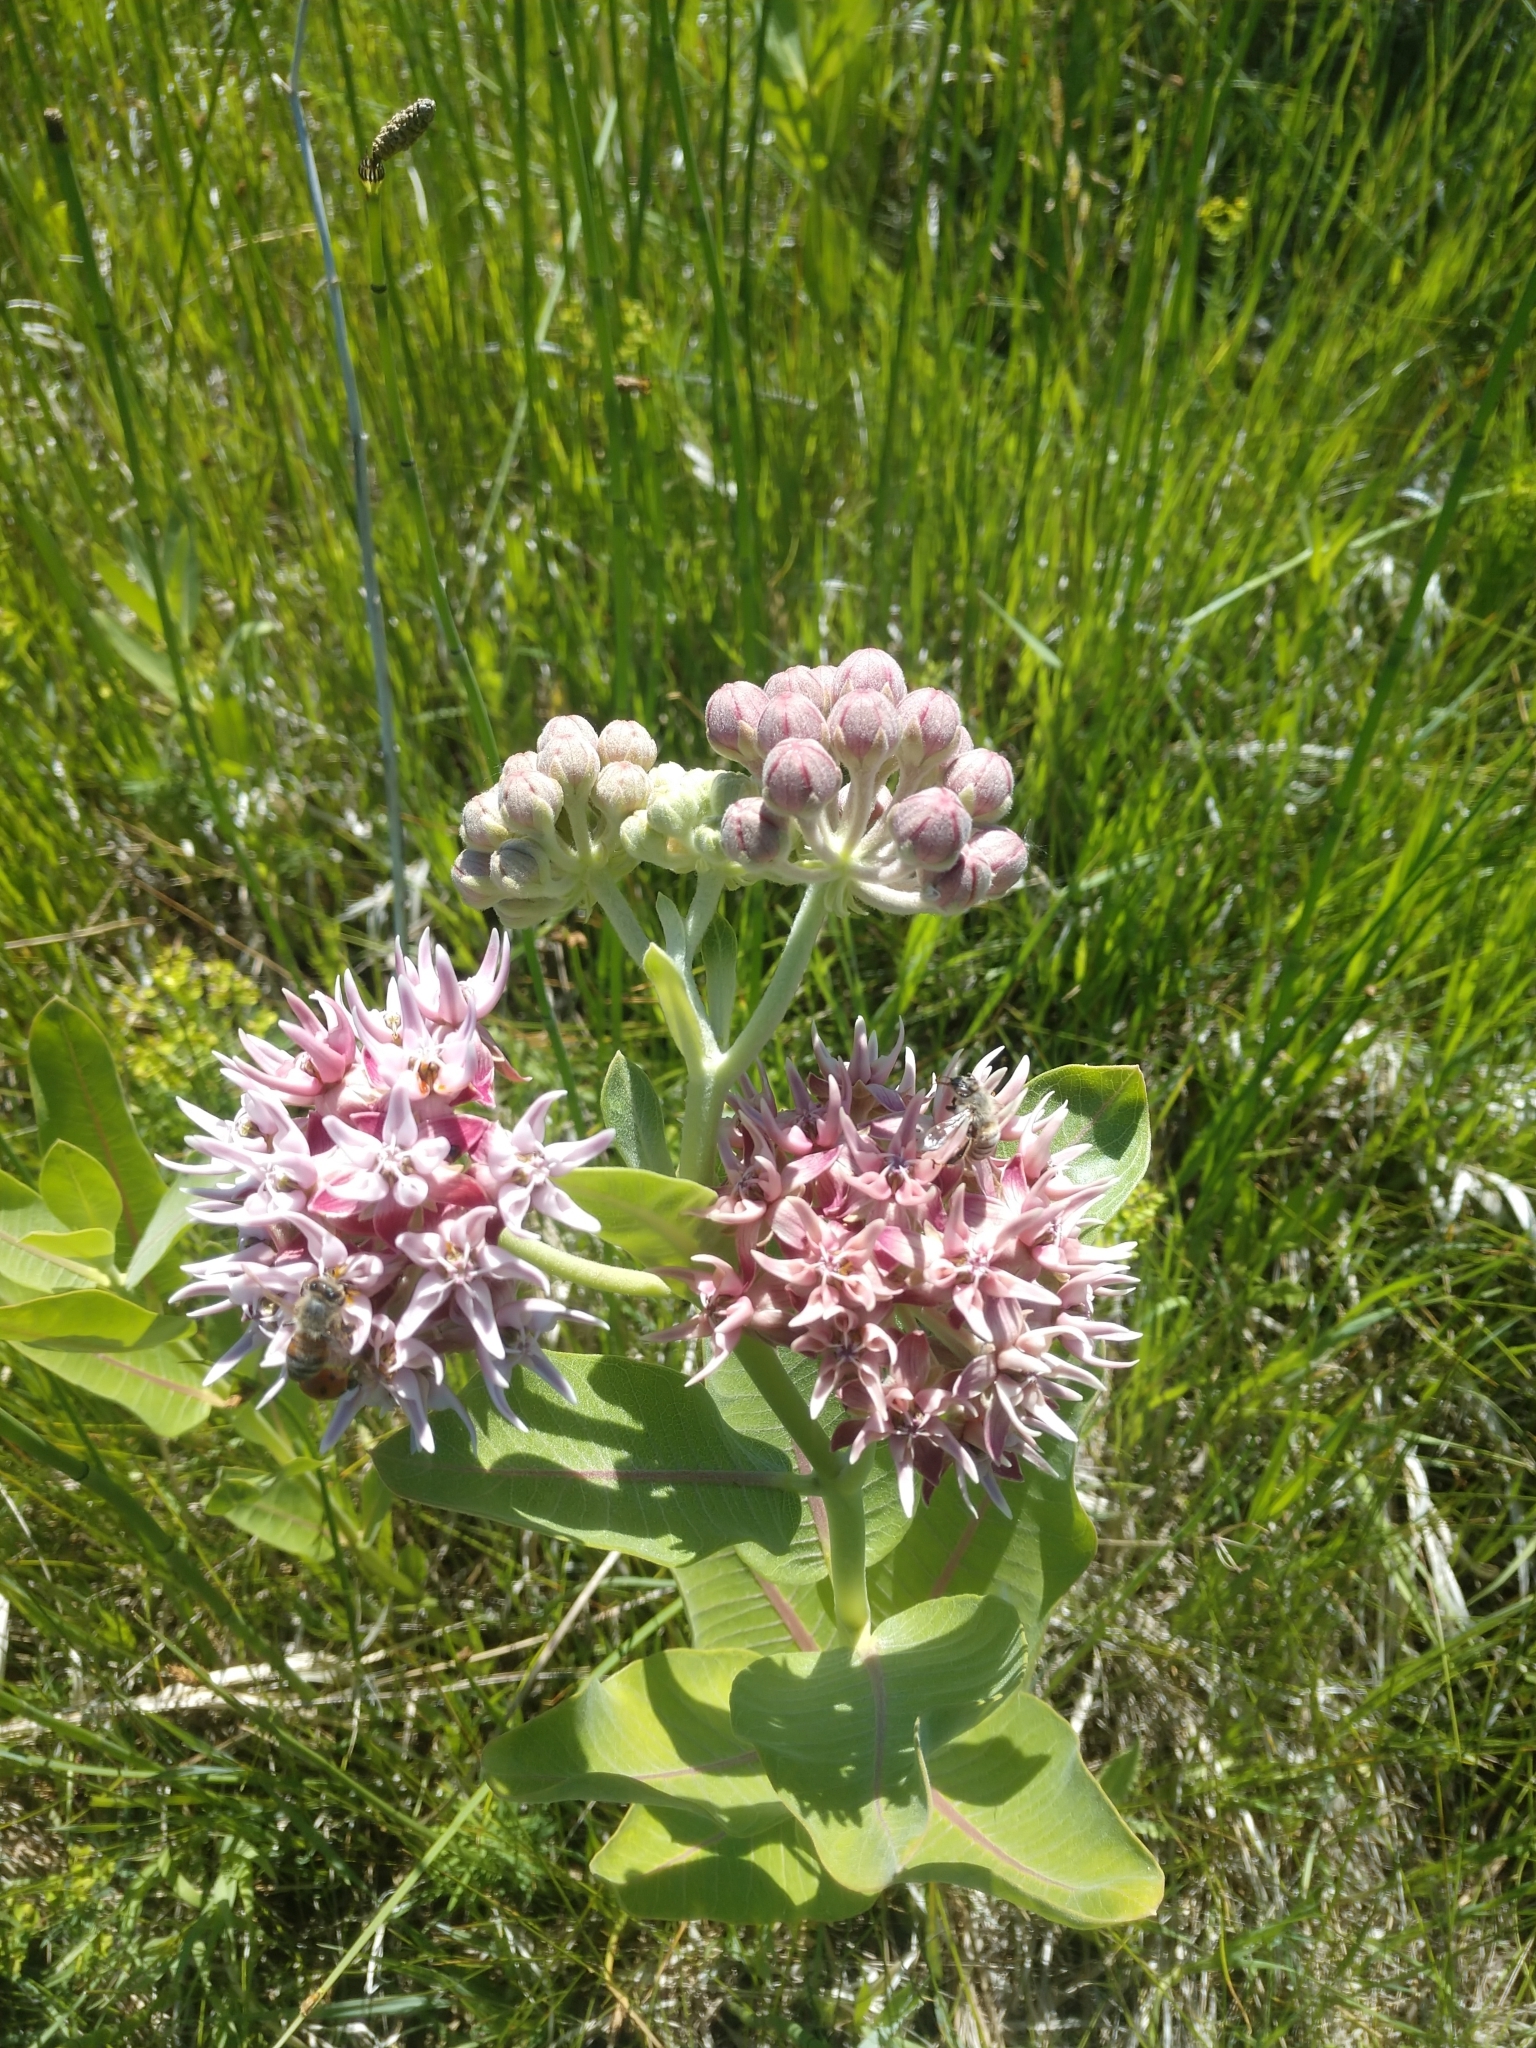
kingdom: Plantae
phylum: Tracheophyta
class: Magnoliopsida
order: Gentianales
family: Apocynaceae
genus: Asclepias
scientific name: Asclepias speciosa
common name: Showy milkweed
